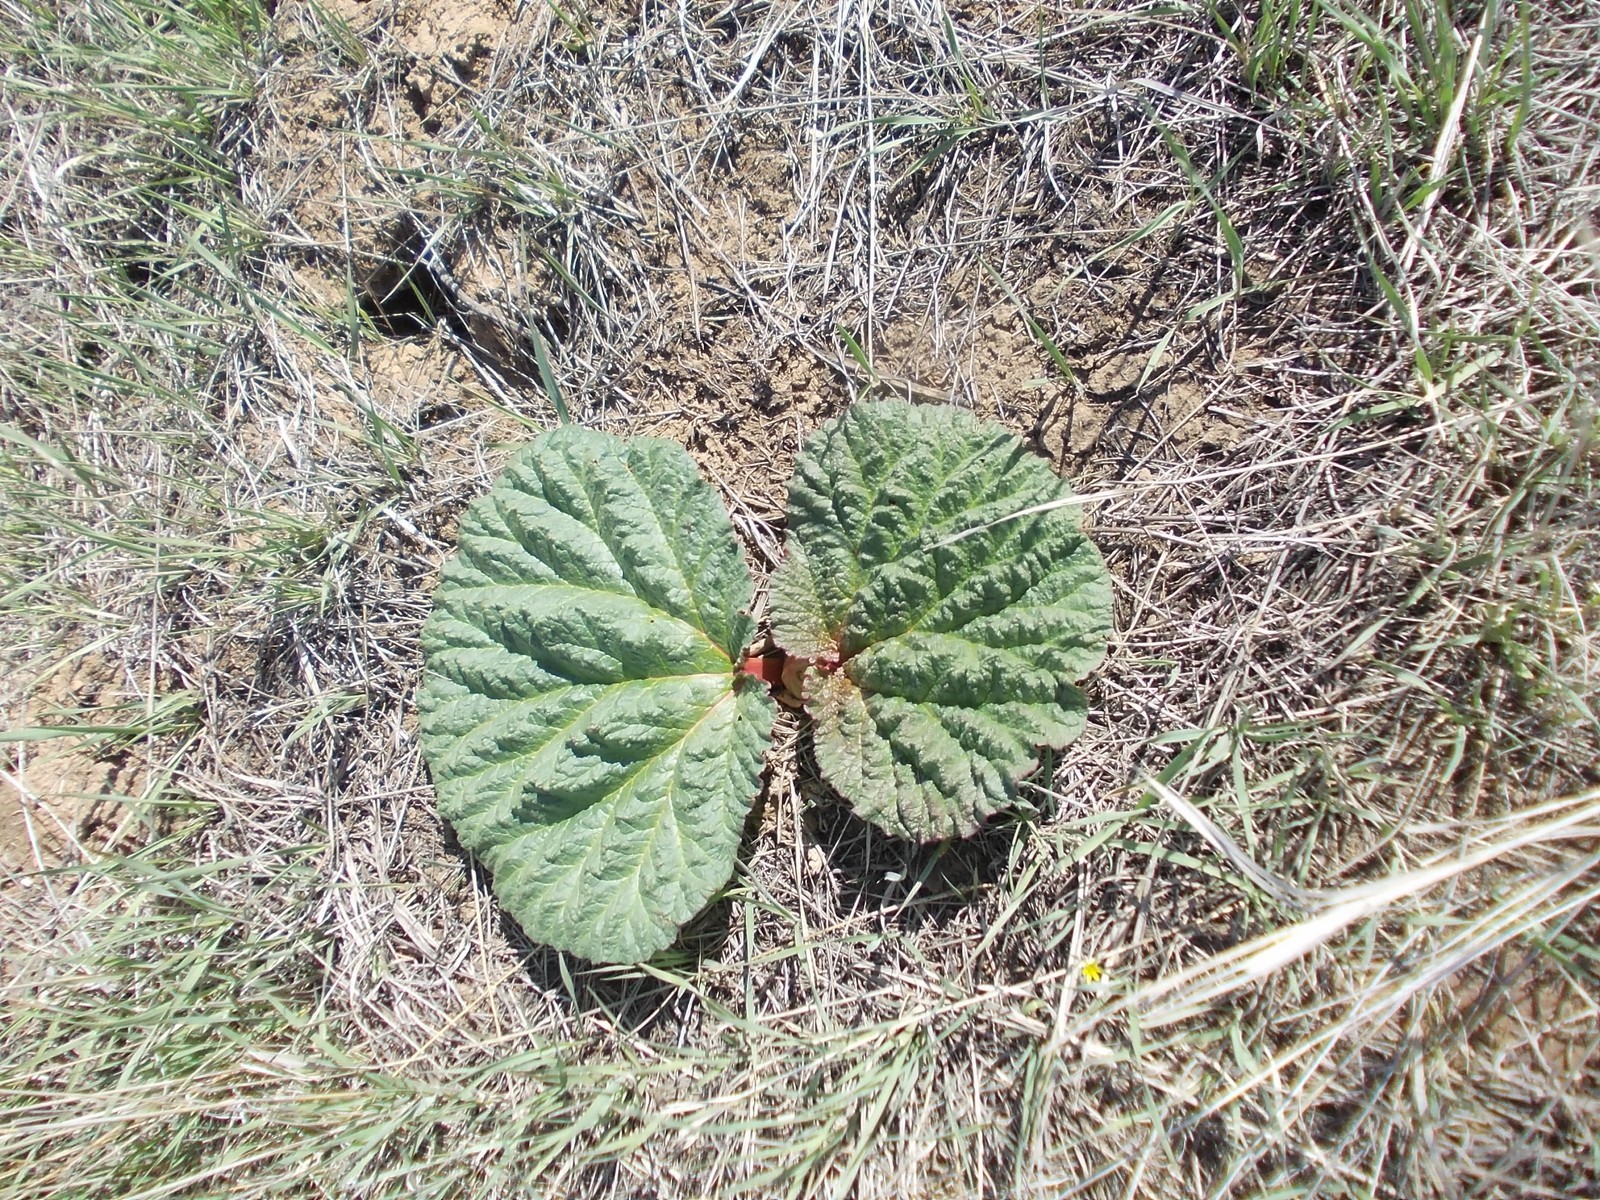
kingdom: Plantae
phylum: Tracheophyta
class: Magnoliopsida
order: Caryophyllales
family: Polygonaceae
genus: Rheum
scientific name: Rheum tataricum
